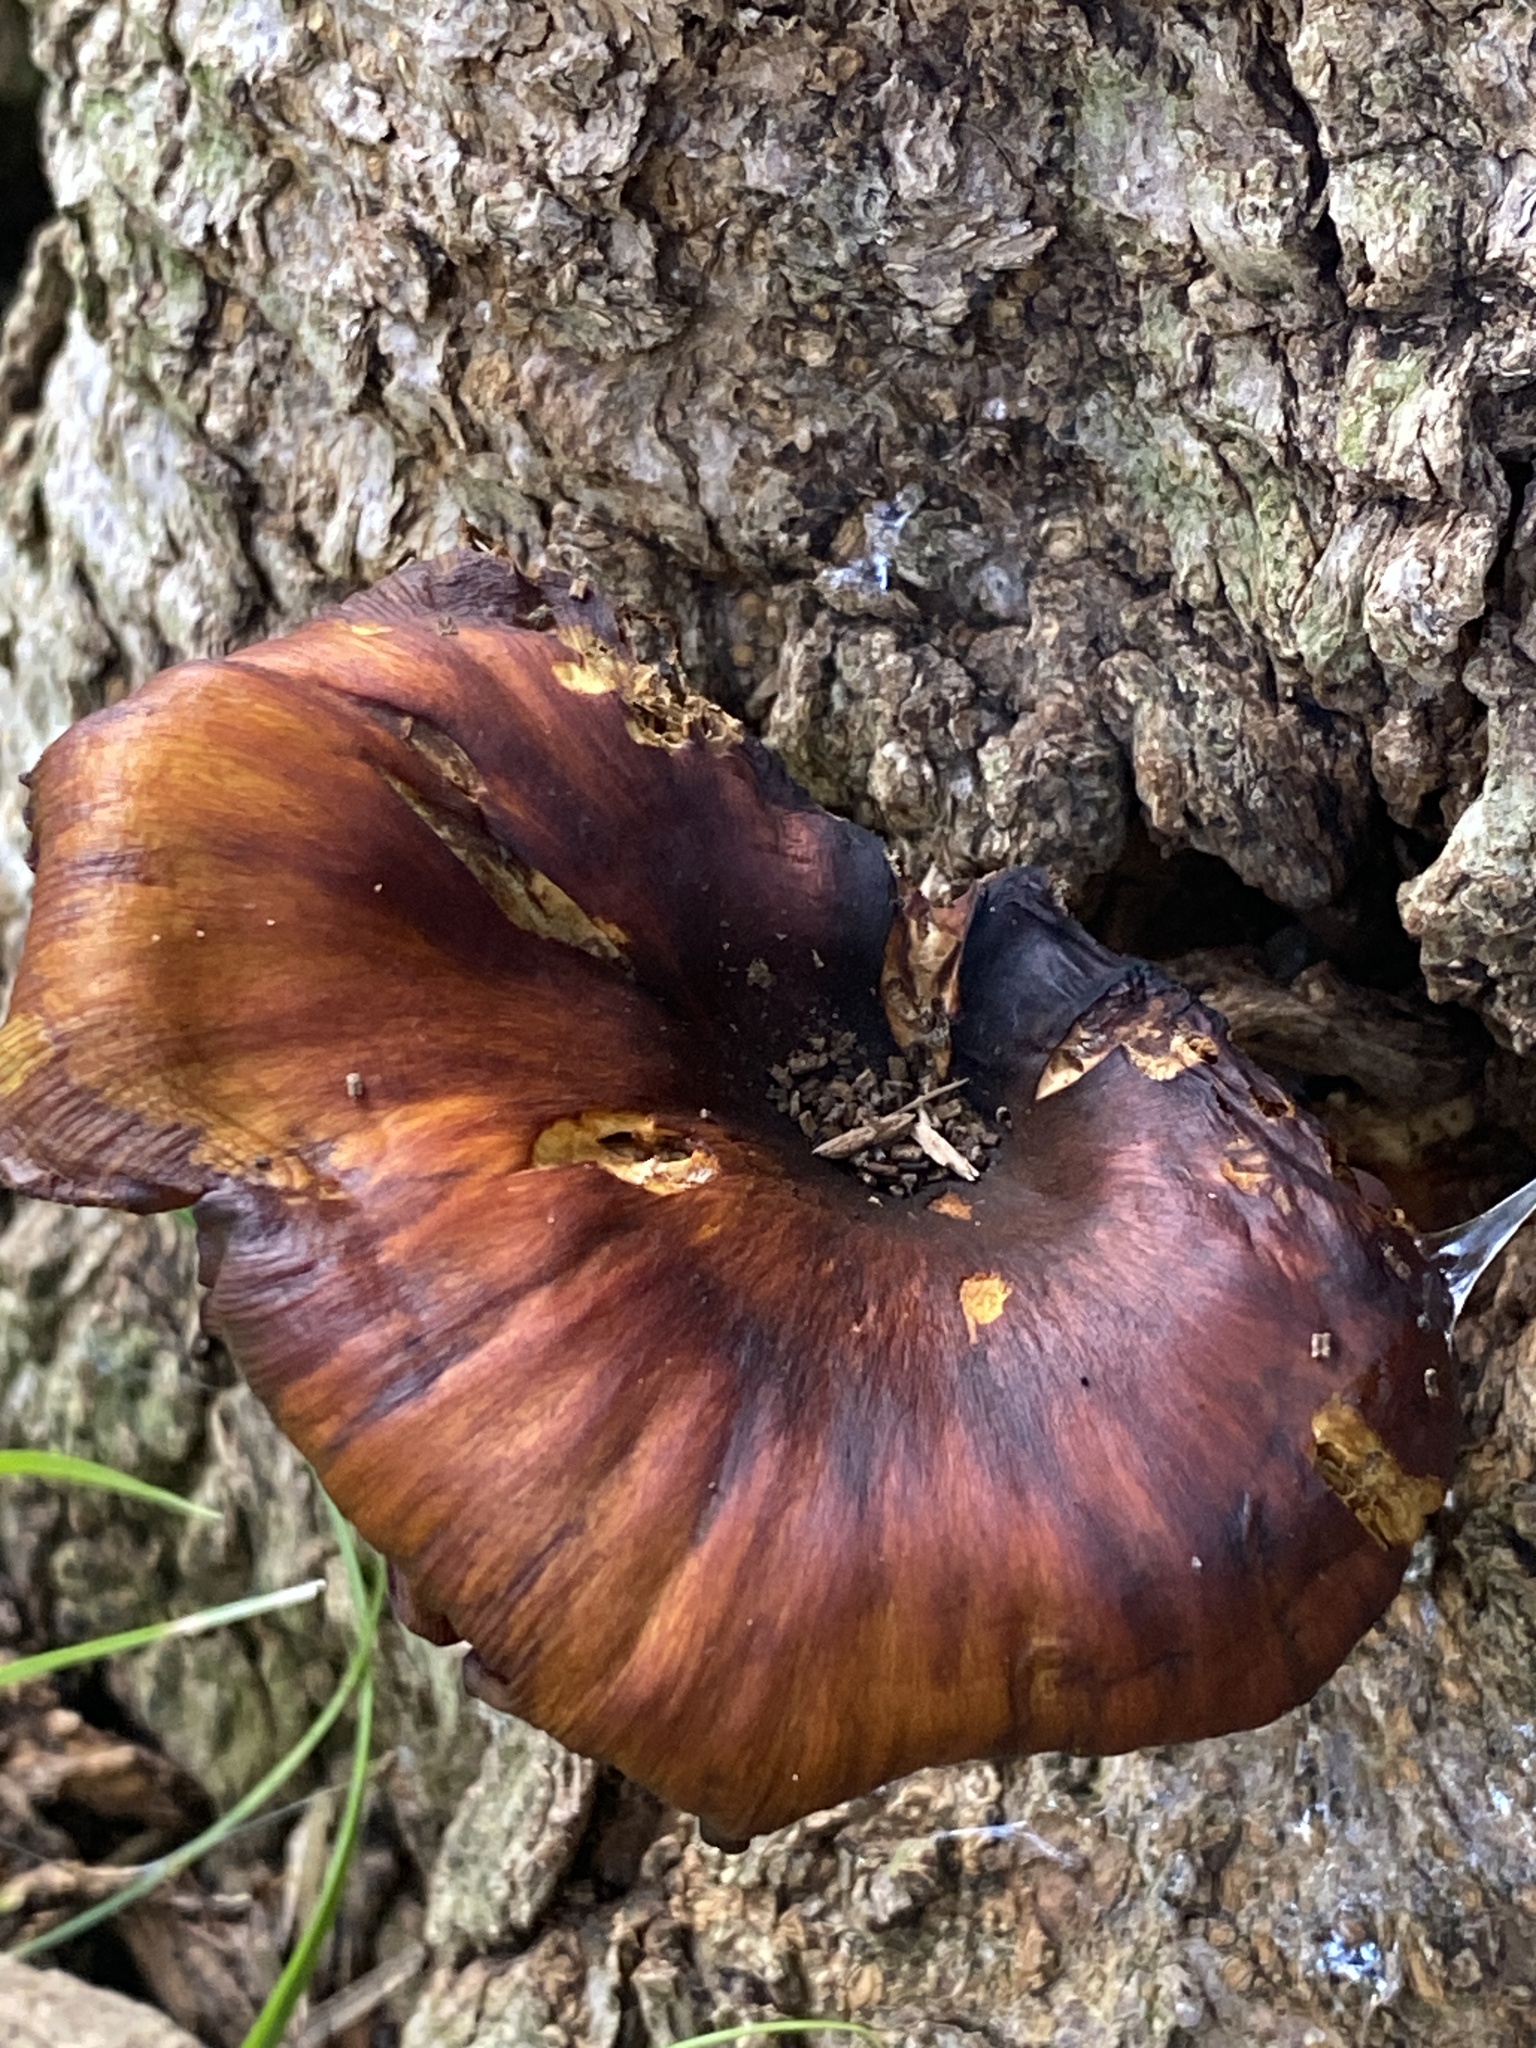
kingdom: Fungi
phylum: Basidiomycota
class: Agaricomycetes
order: Polyporales
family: Polyporaceae
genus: Picipes
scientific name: Picipes badius
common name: Bay polypore
